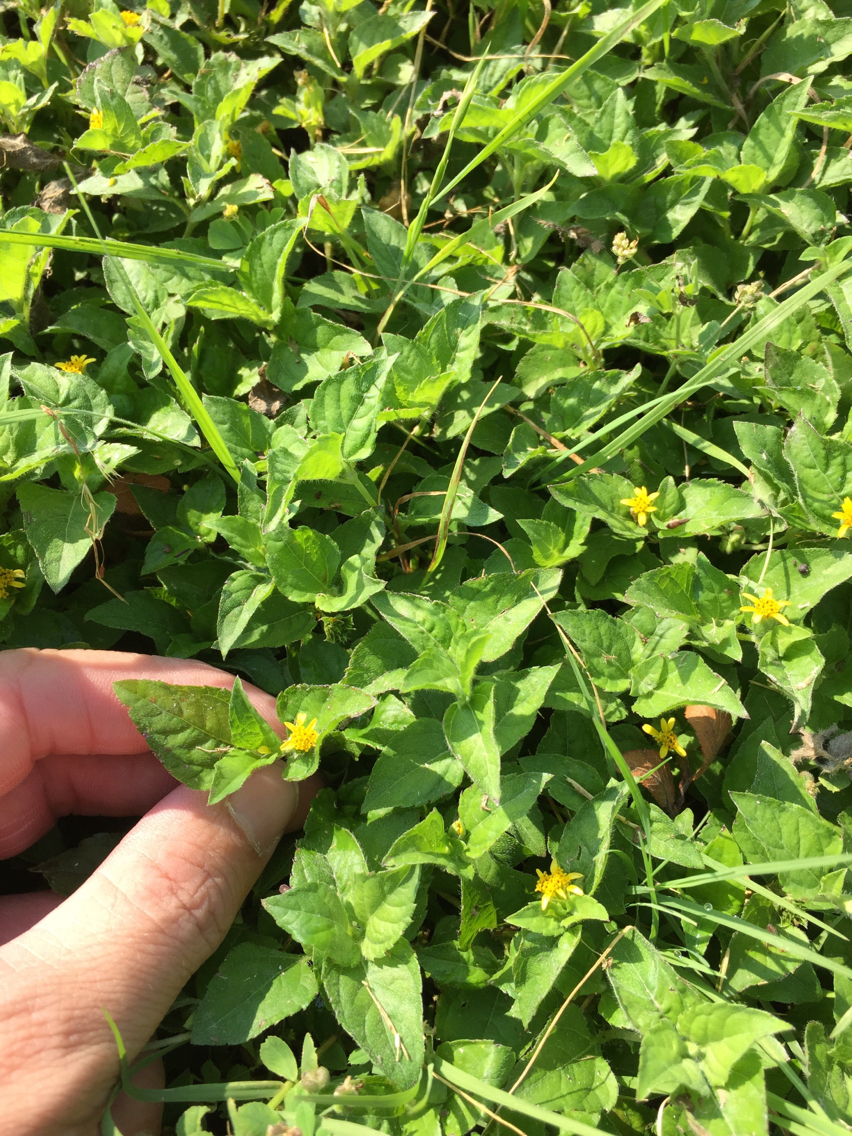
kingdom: Plantae
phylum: Tracheophyta
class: Magnoliopsida
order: Asterales
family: Asteraceae
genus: Calyptocarpus
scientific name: Calyptocarpus vialis
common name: Straggler daisy
